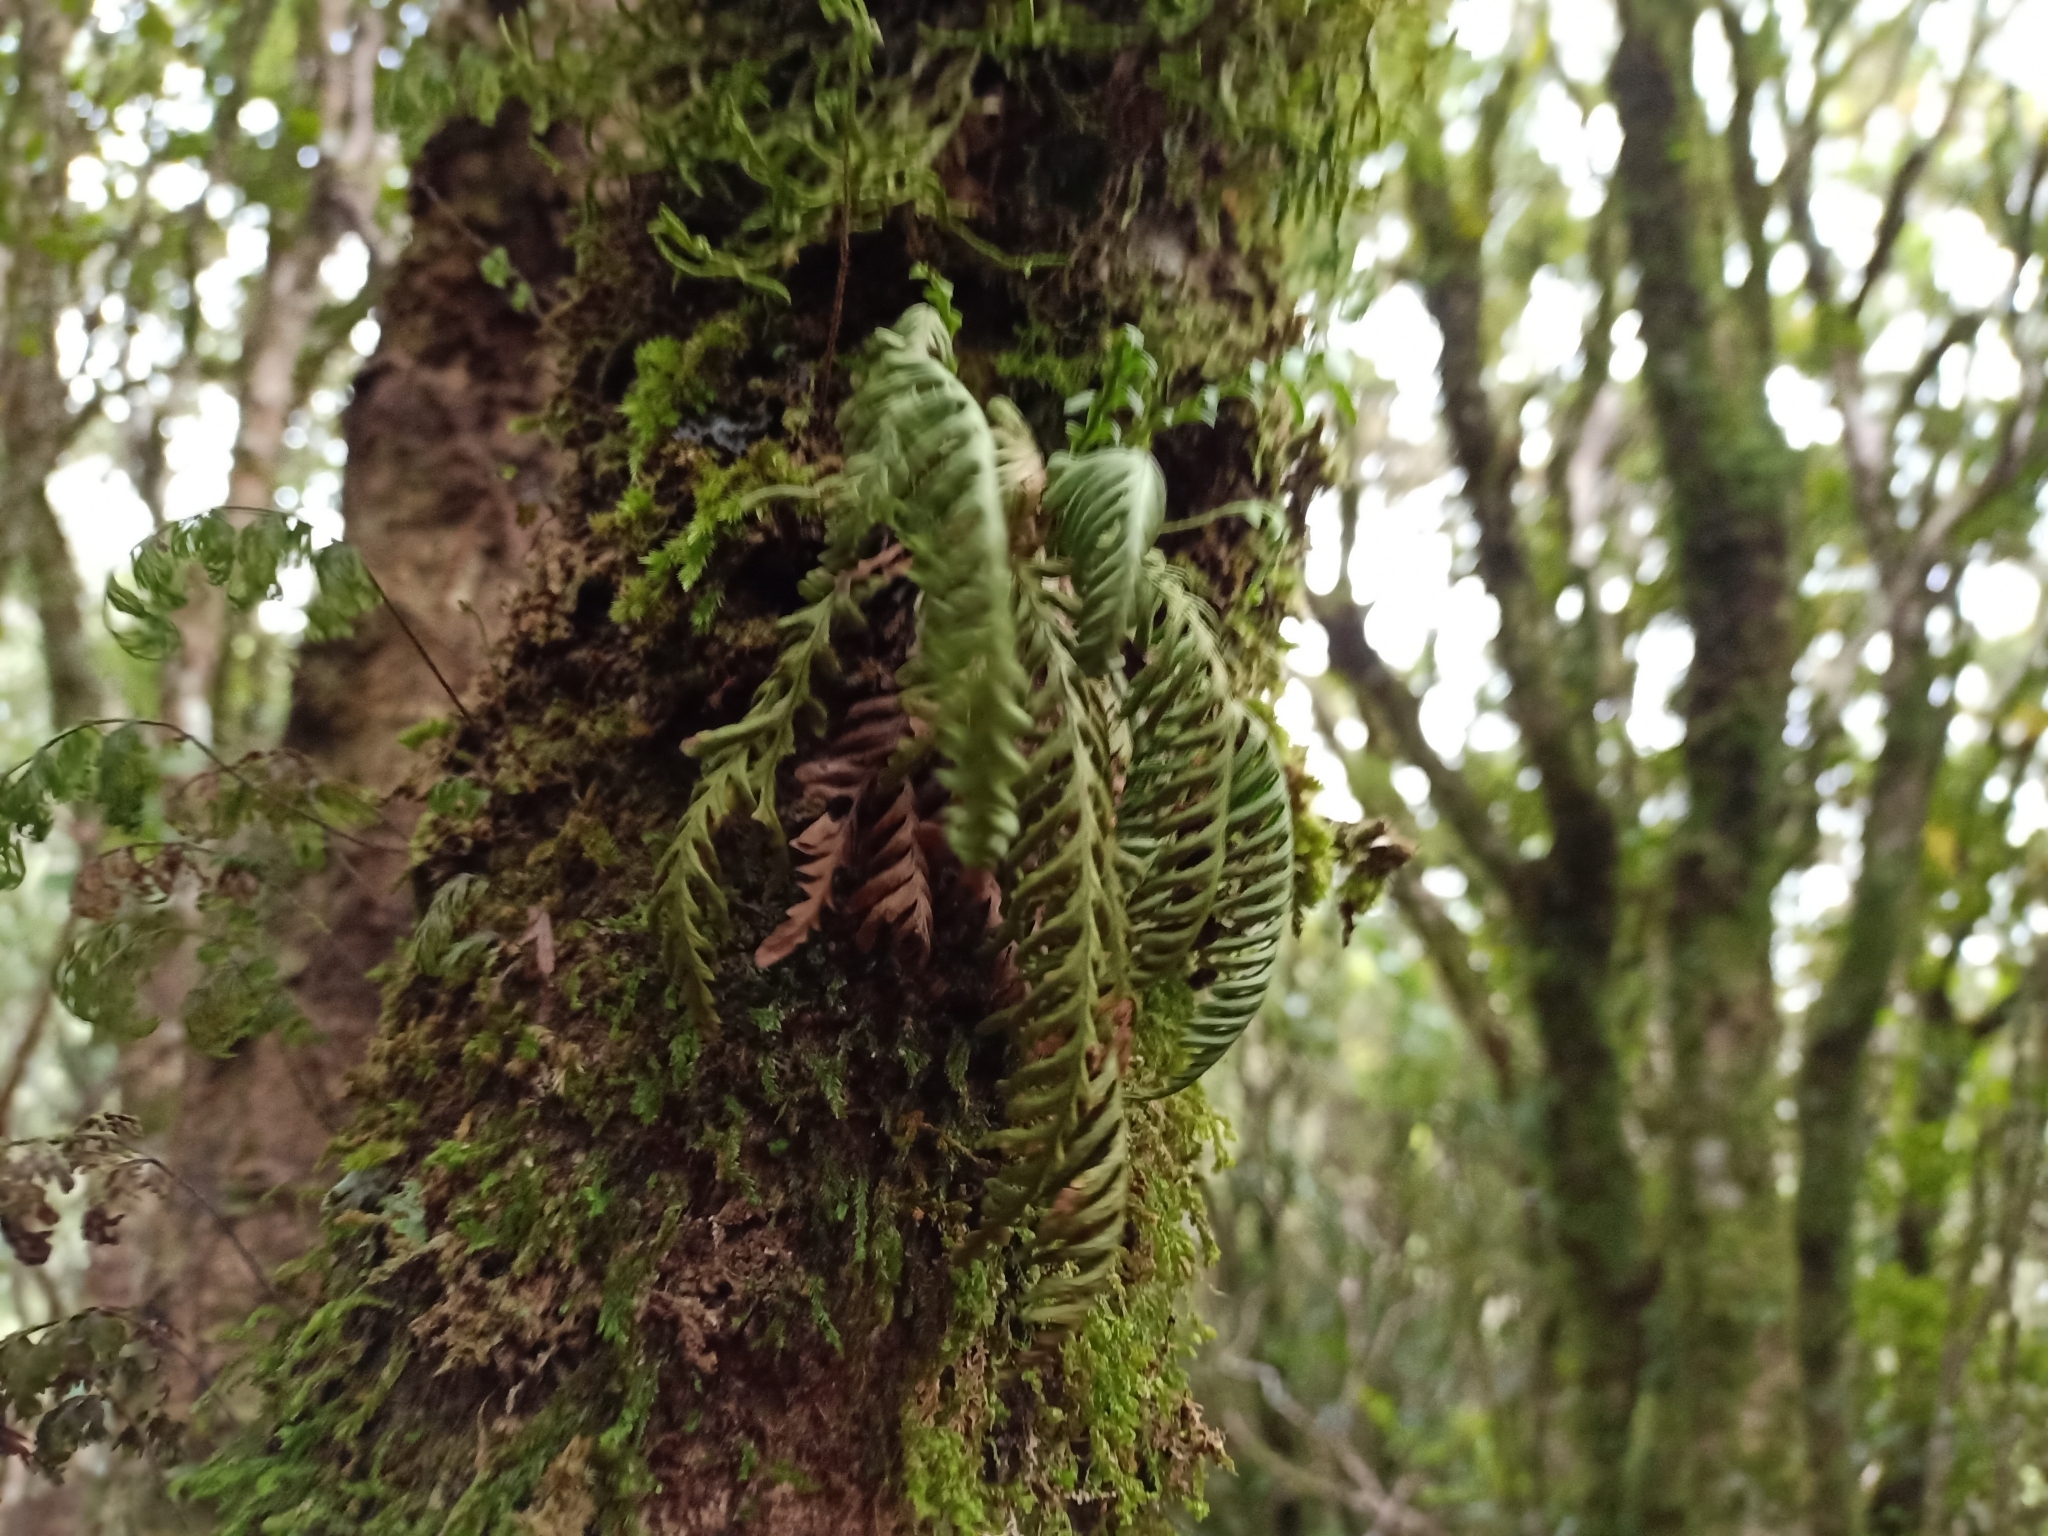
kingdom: Plantae
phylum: Tracheophyta
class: Polypodiopsida
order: Polypodiales
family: Polypodiaceae
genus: Notogrammitis
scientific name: Notogrammitis heterophylla
